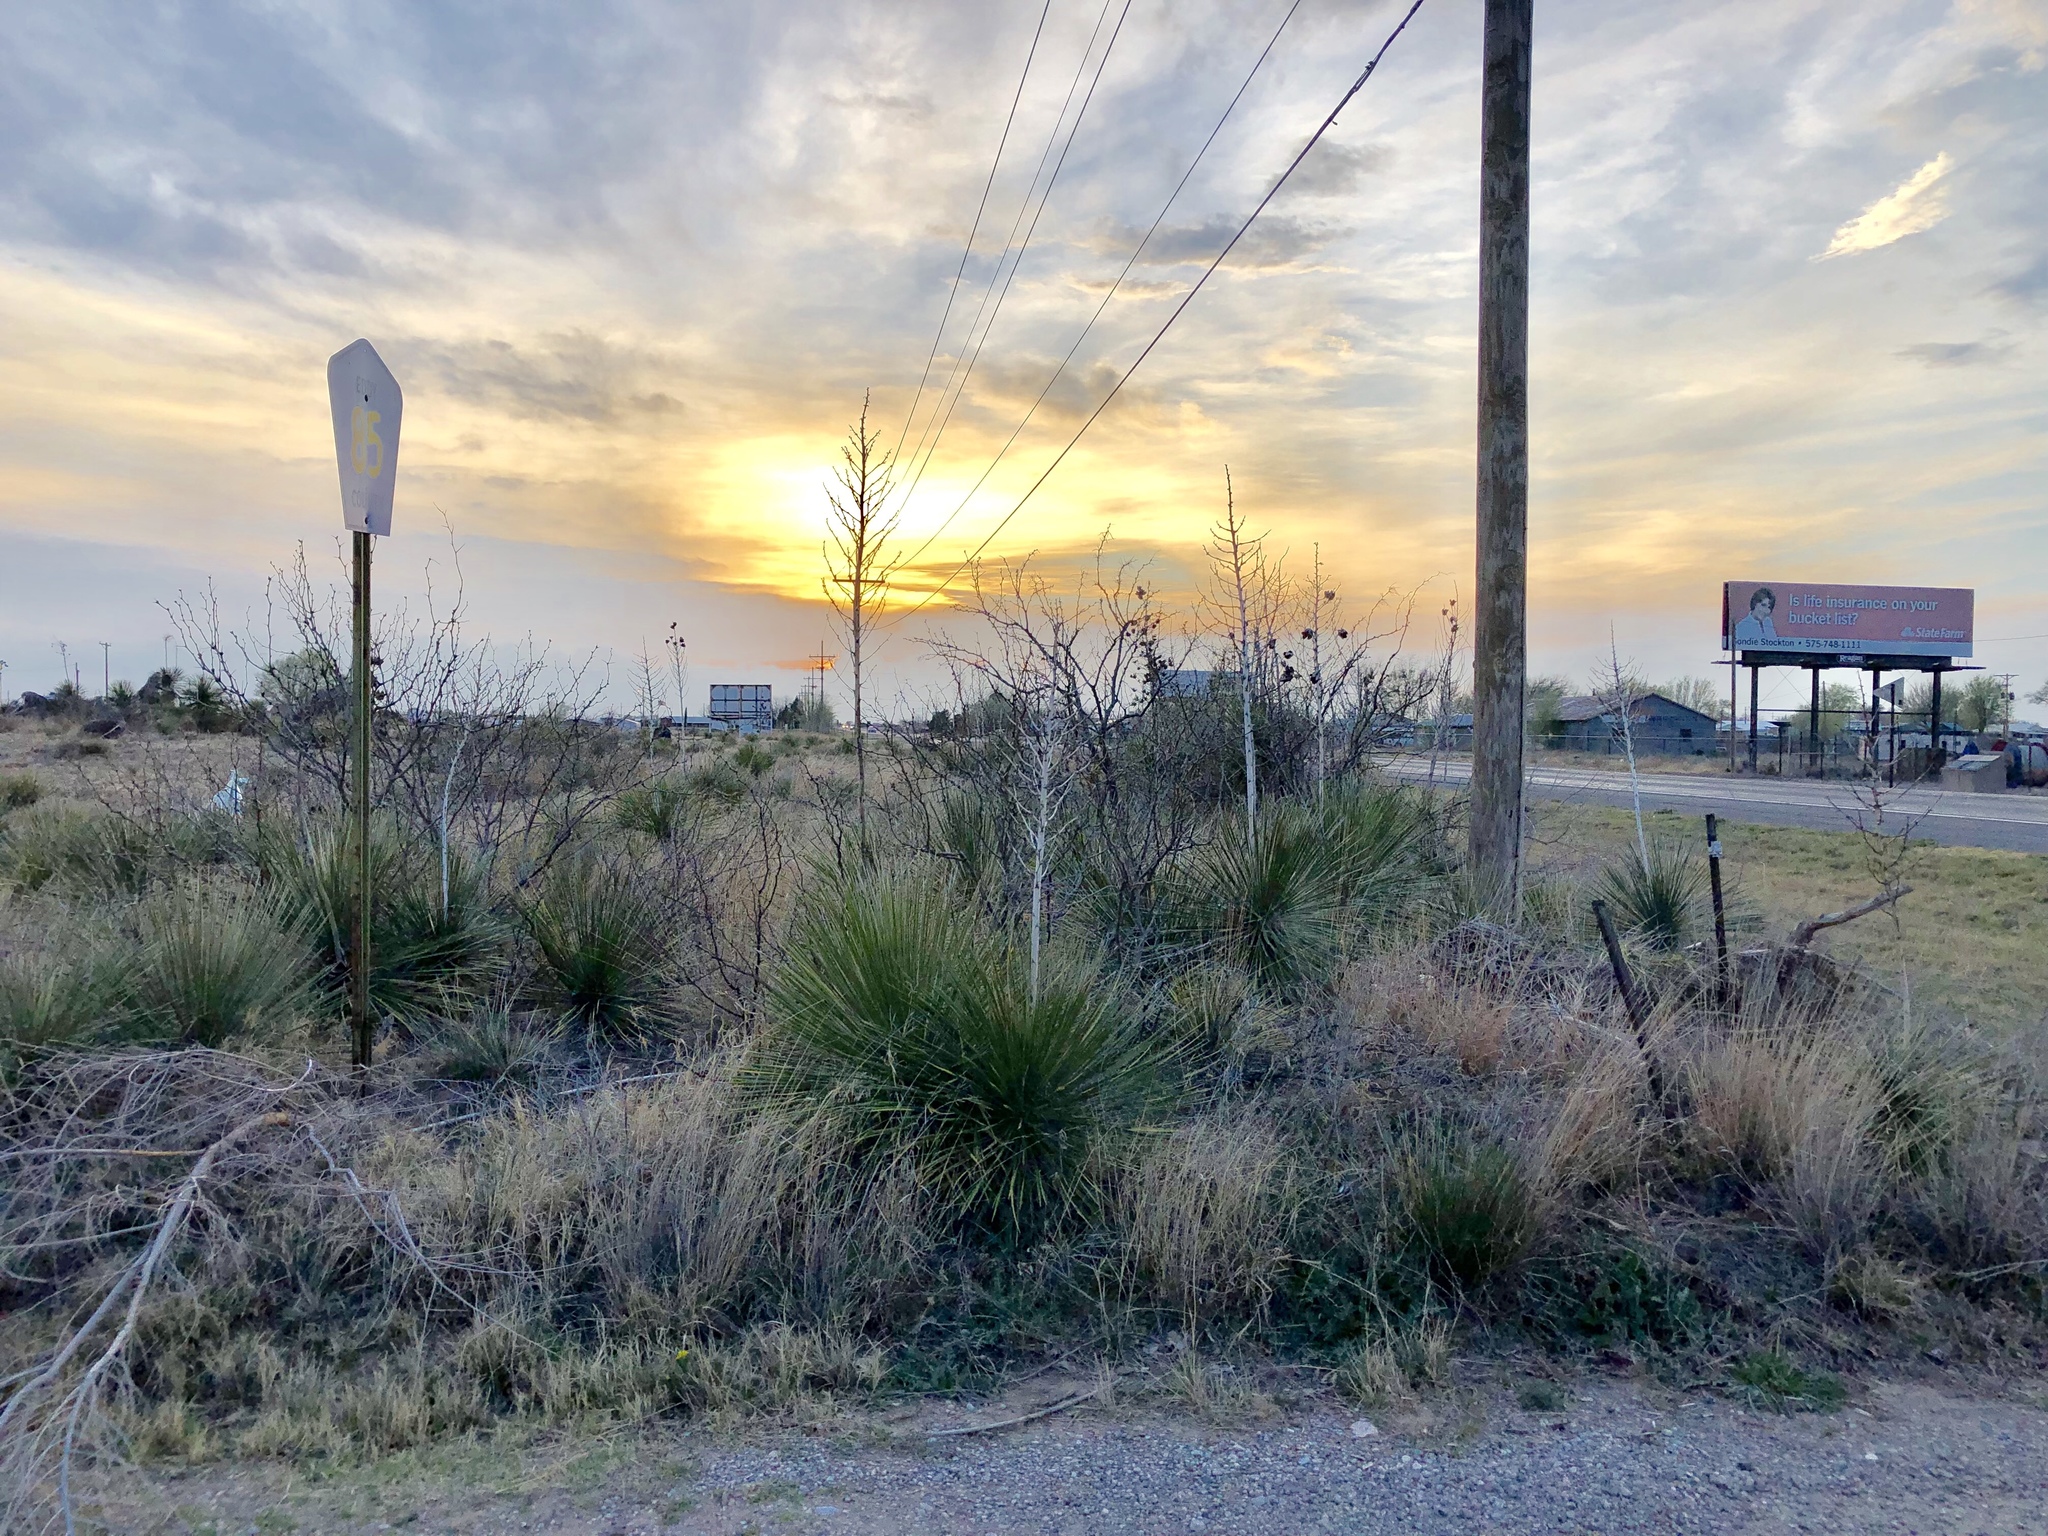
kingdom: Plantae
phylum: Tracheophyta
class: Liliopsida
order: Asparagales
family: Asparagaceae
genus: Yucca
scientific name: Yucca elata
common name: Palmella
